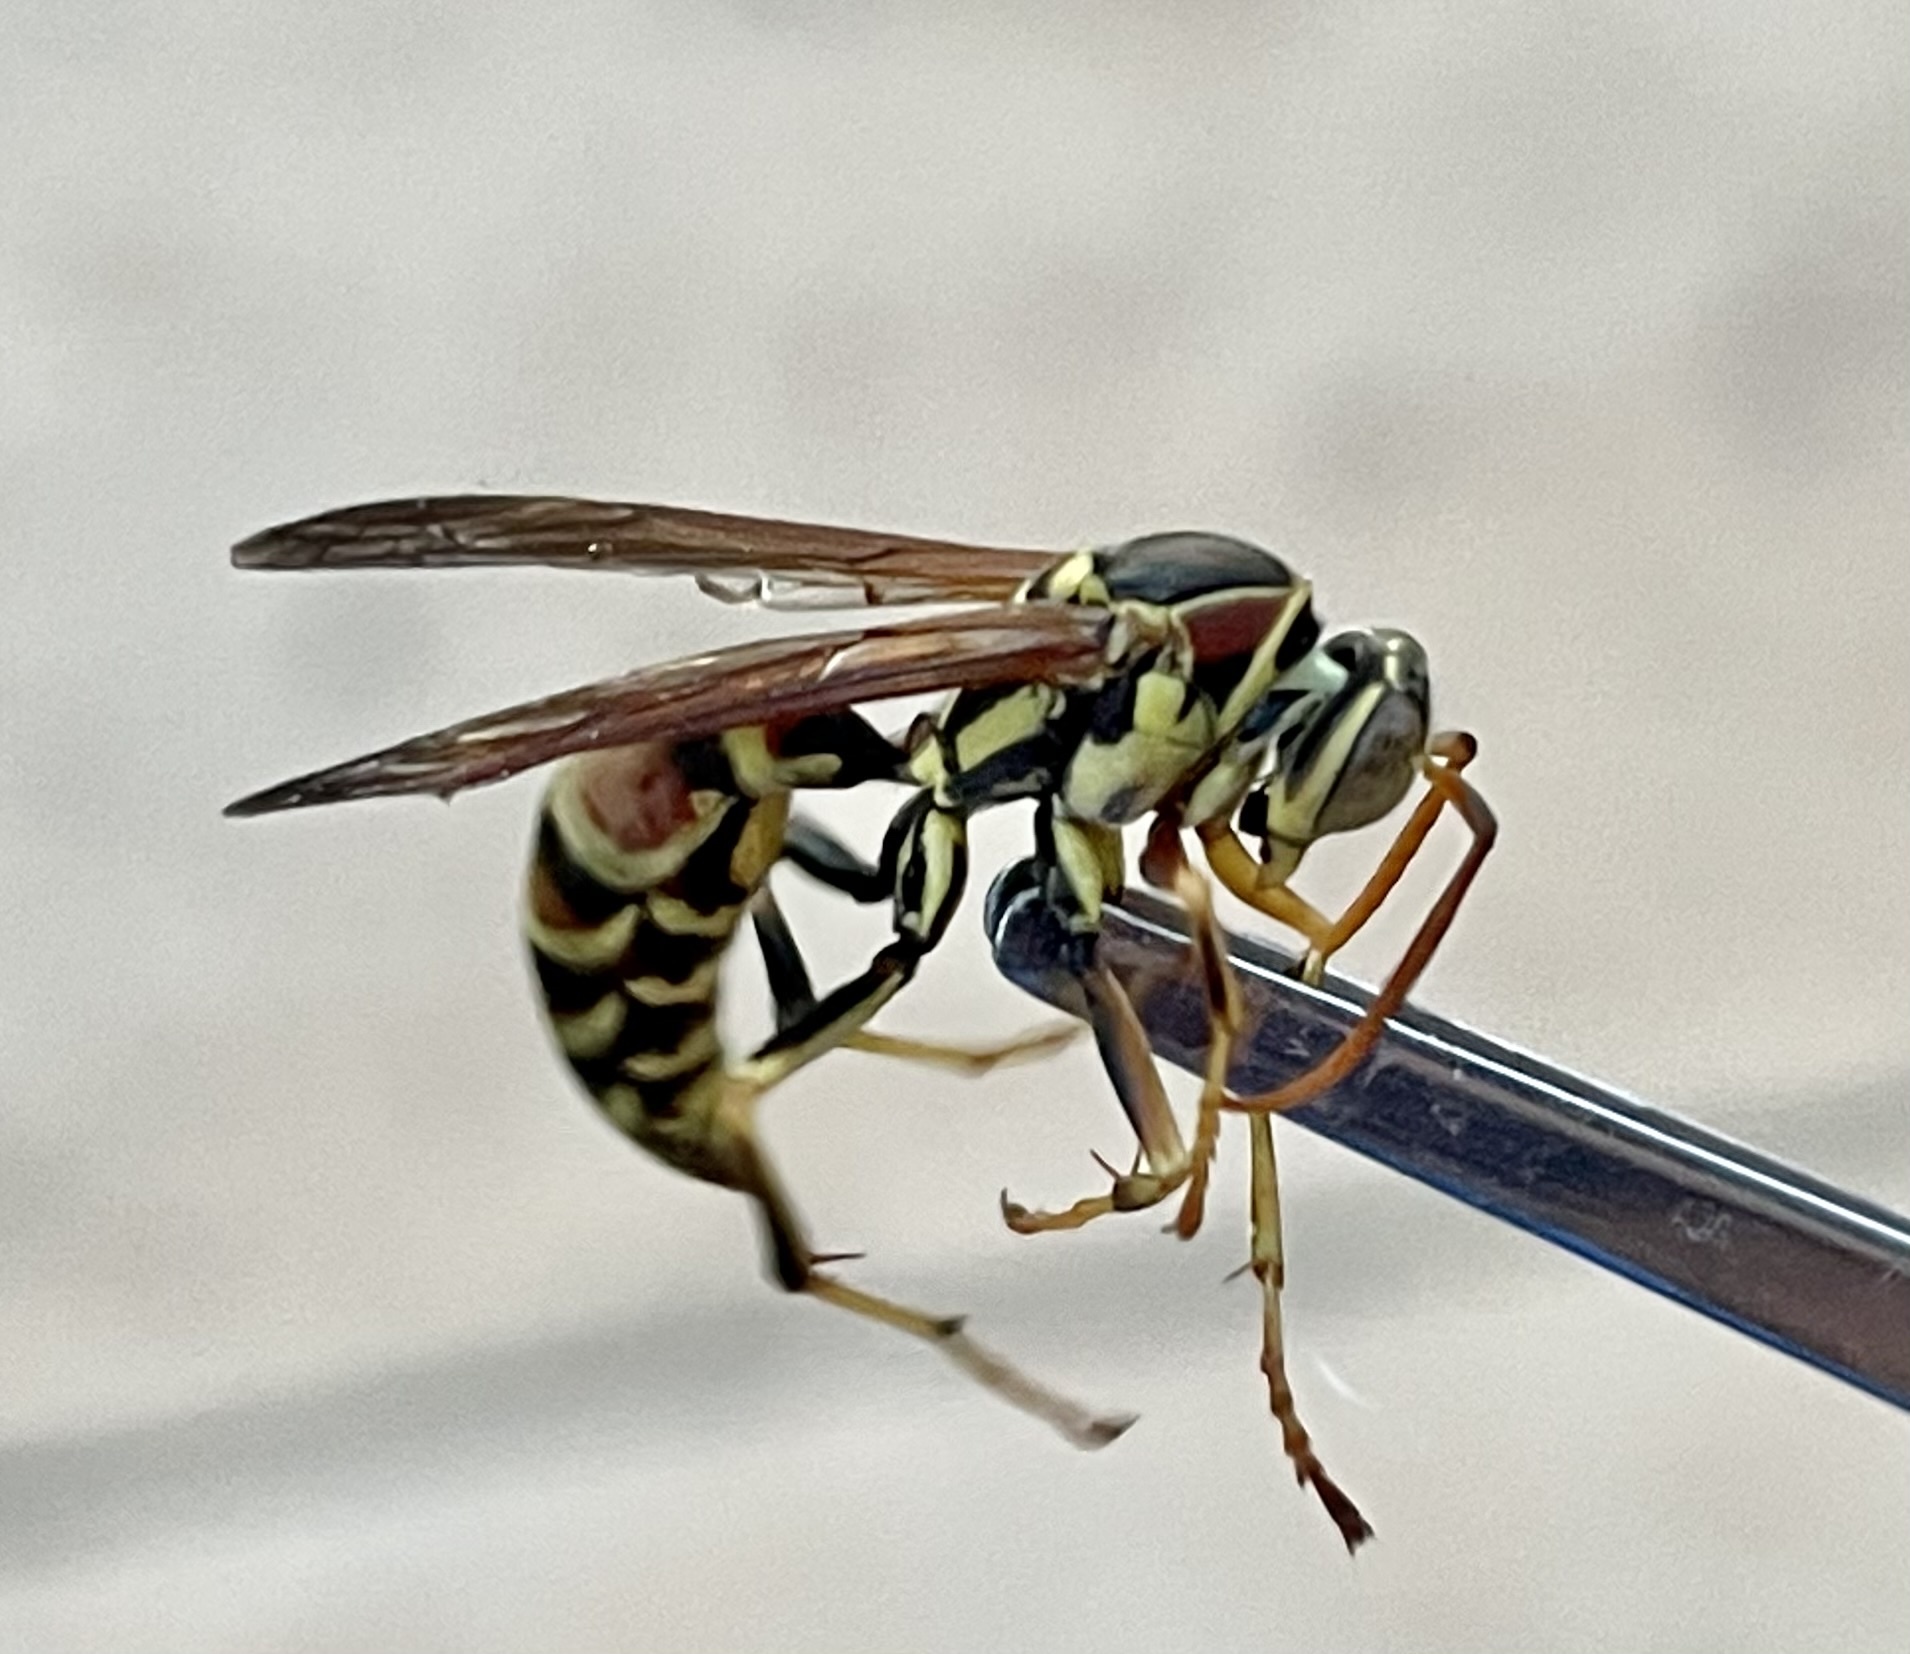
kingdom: Animalia
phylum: Arthropoda
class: Insecta
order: Hymenoptera
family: Eumenidae
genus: Polistes
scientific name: Polistes exclamans
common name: Paper wasp
